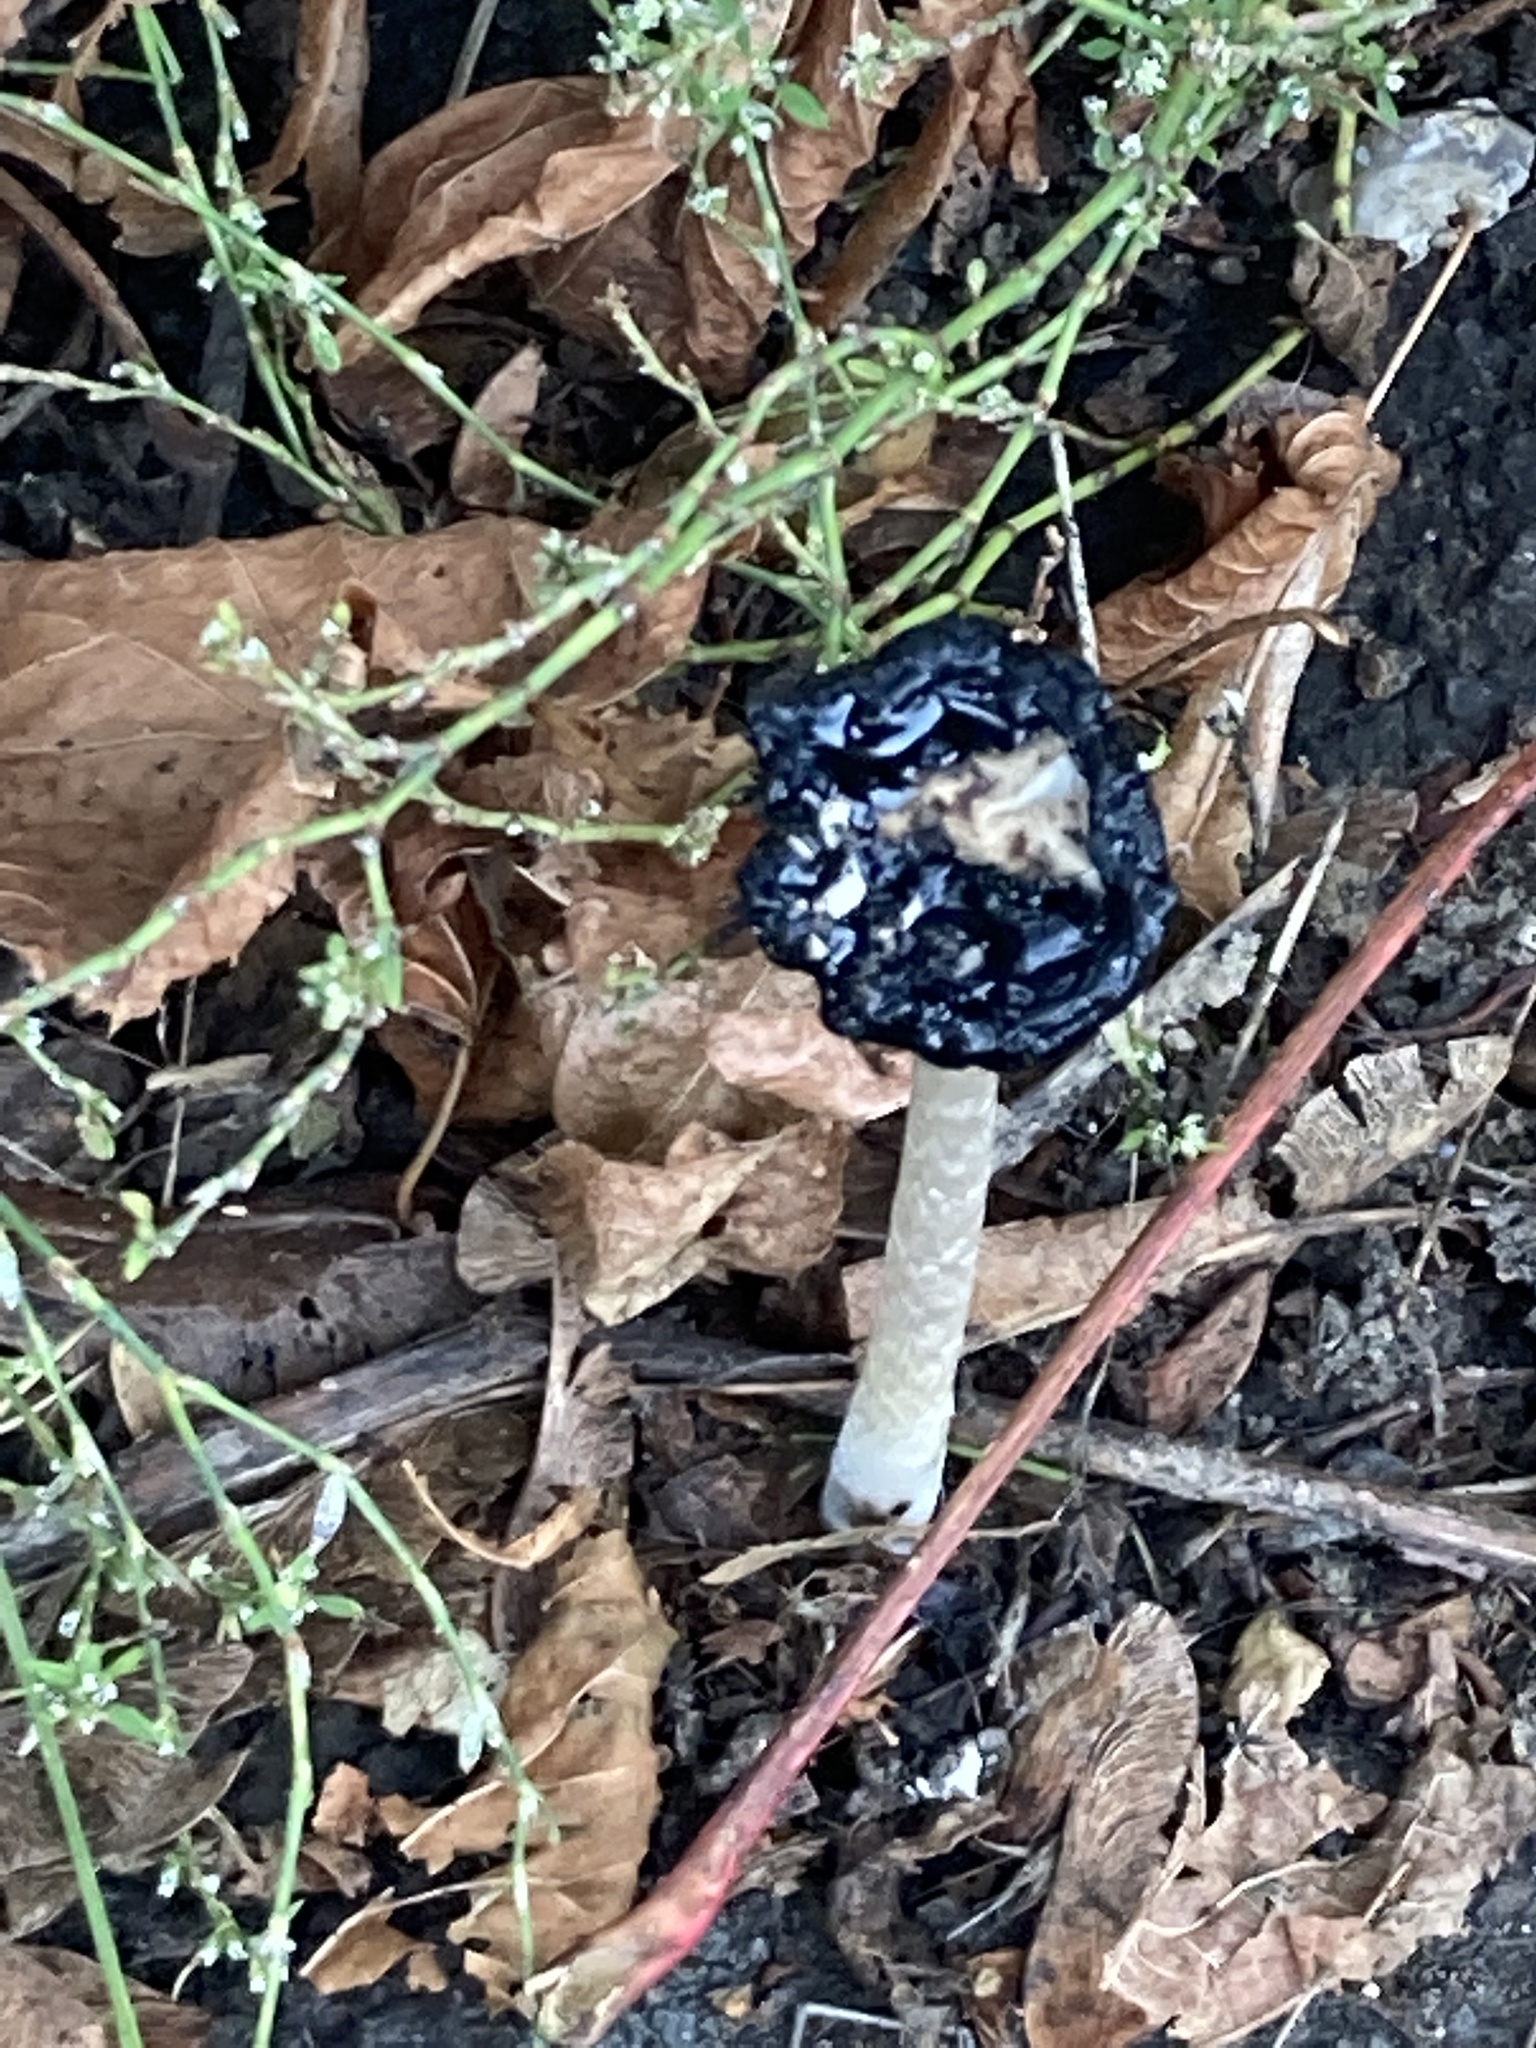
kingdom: Fungi
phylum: Basidiomycota
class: Agaricomycetes
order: Agaricales
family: Psathyrellaceae
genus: Coprinopsis
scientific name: Coprinopsis picacea
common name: Magpie inkcap
